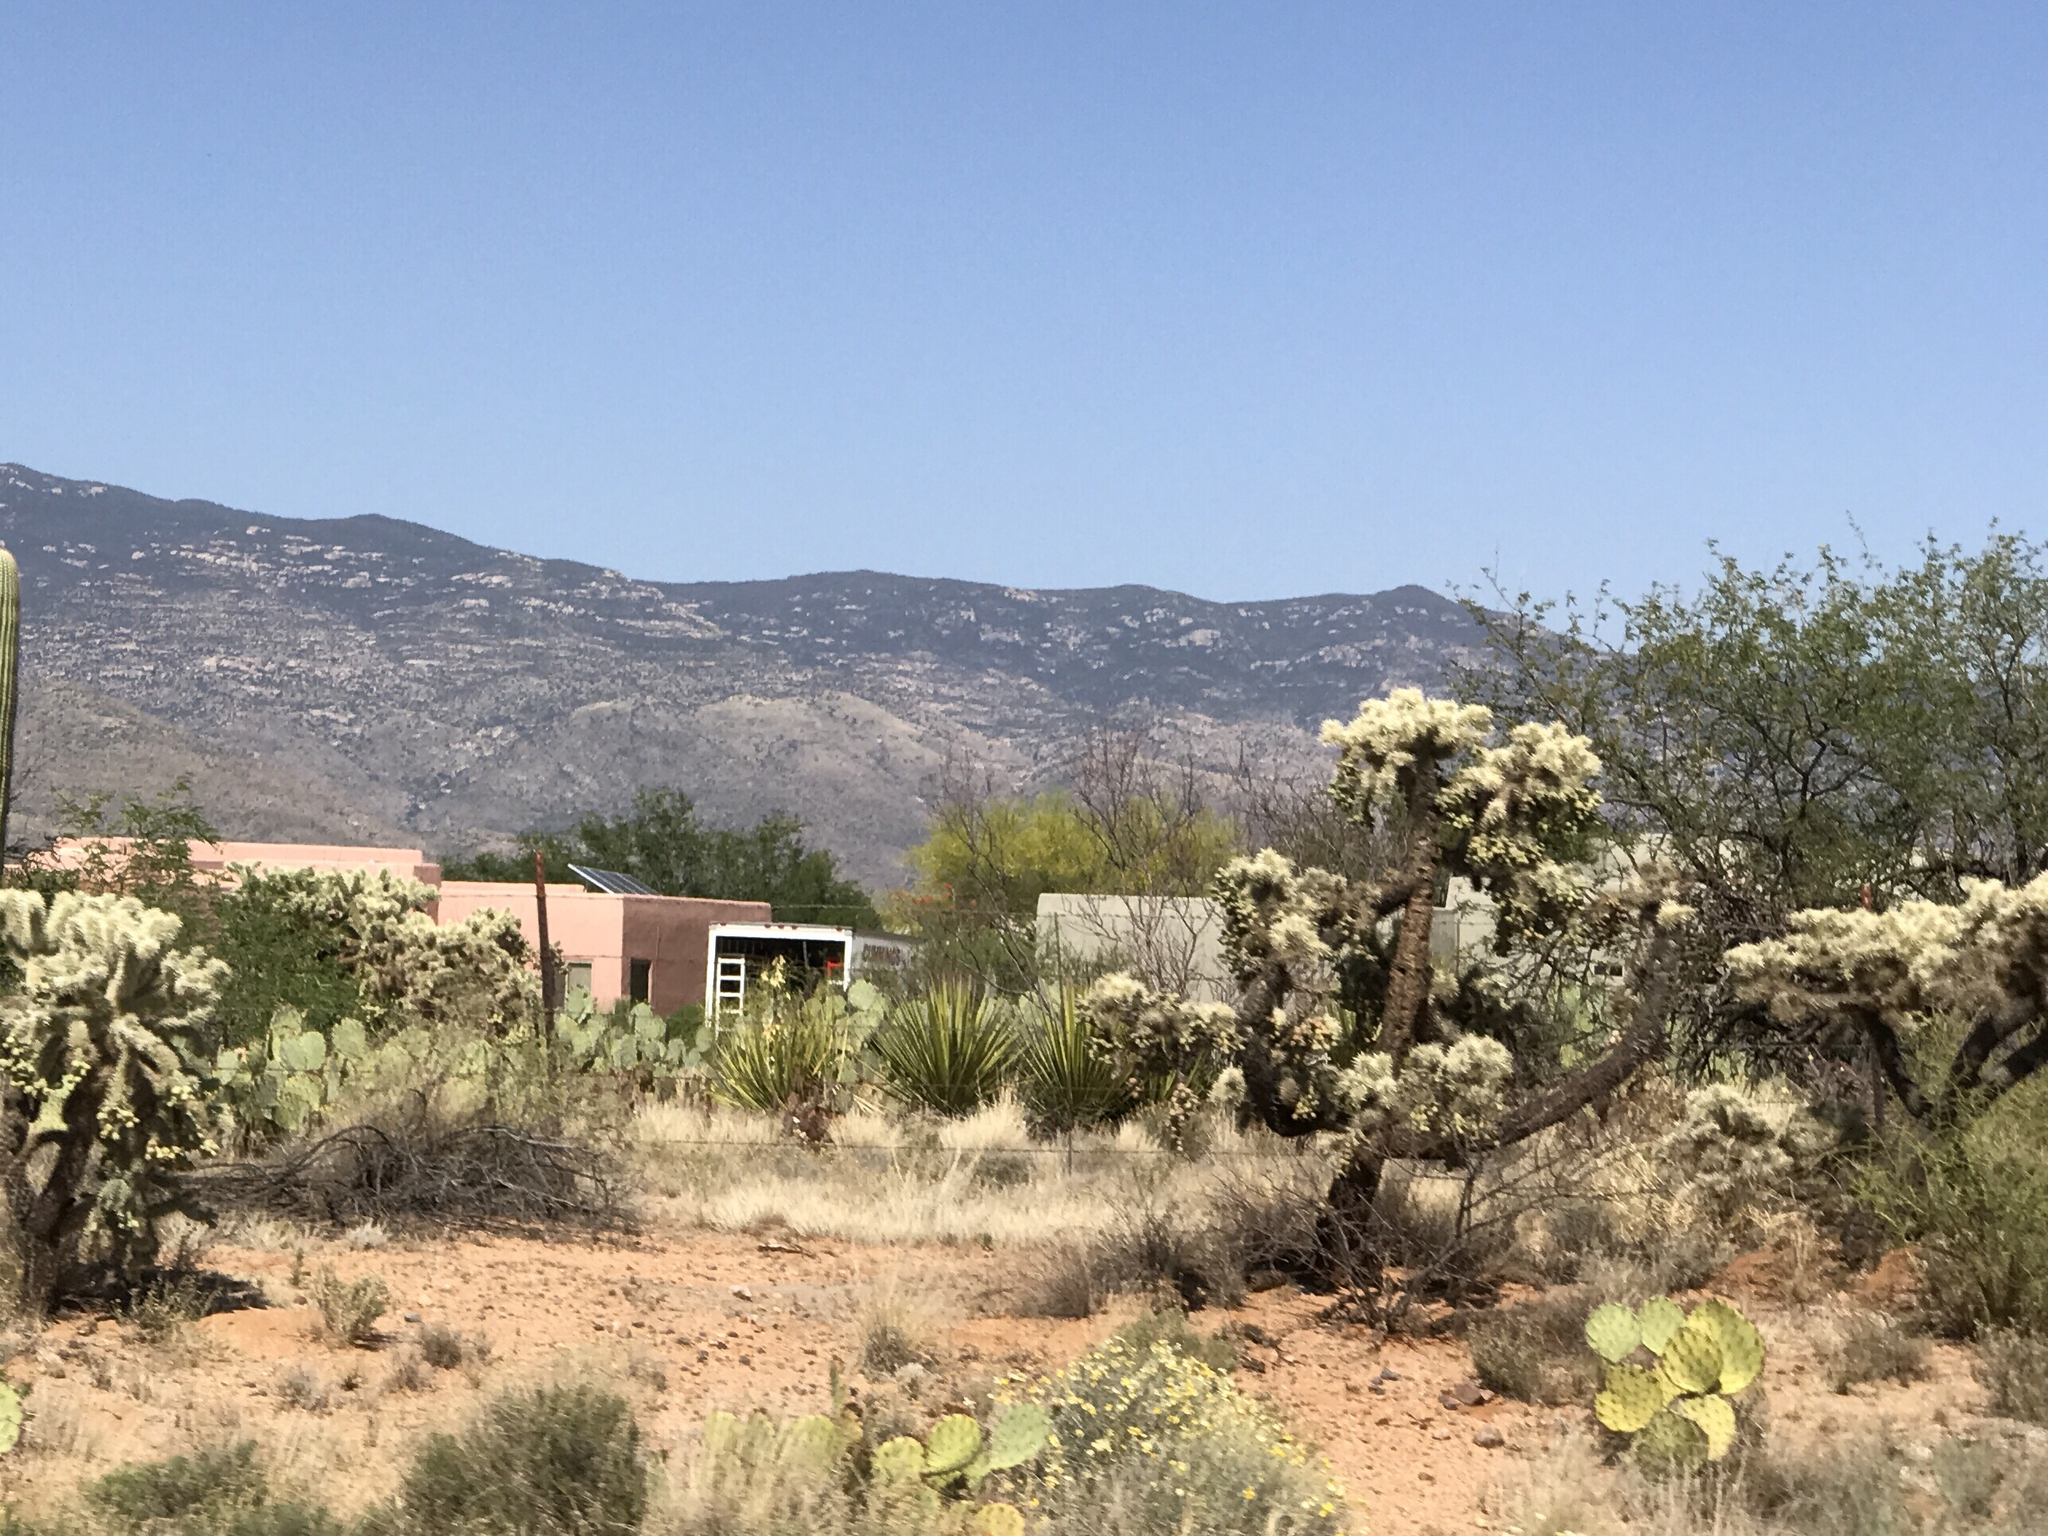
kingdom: Plantae
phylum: Tracheophyta
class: Magnoliopsida
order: Caryophyllales
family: Cactaceae
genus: Cylindropuntia
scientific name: Cylindropuntia fulgida
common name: Jumping cholla
